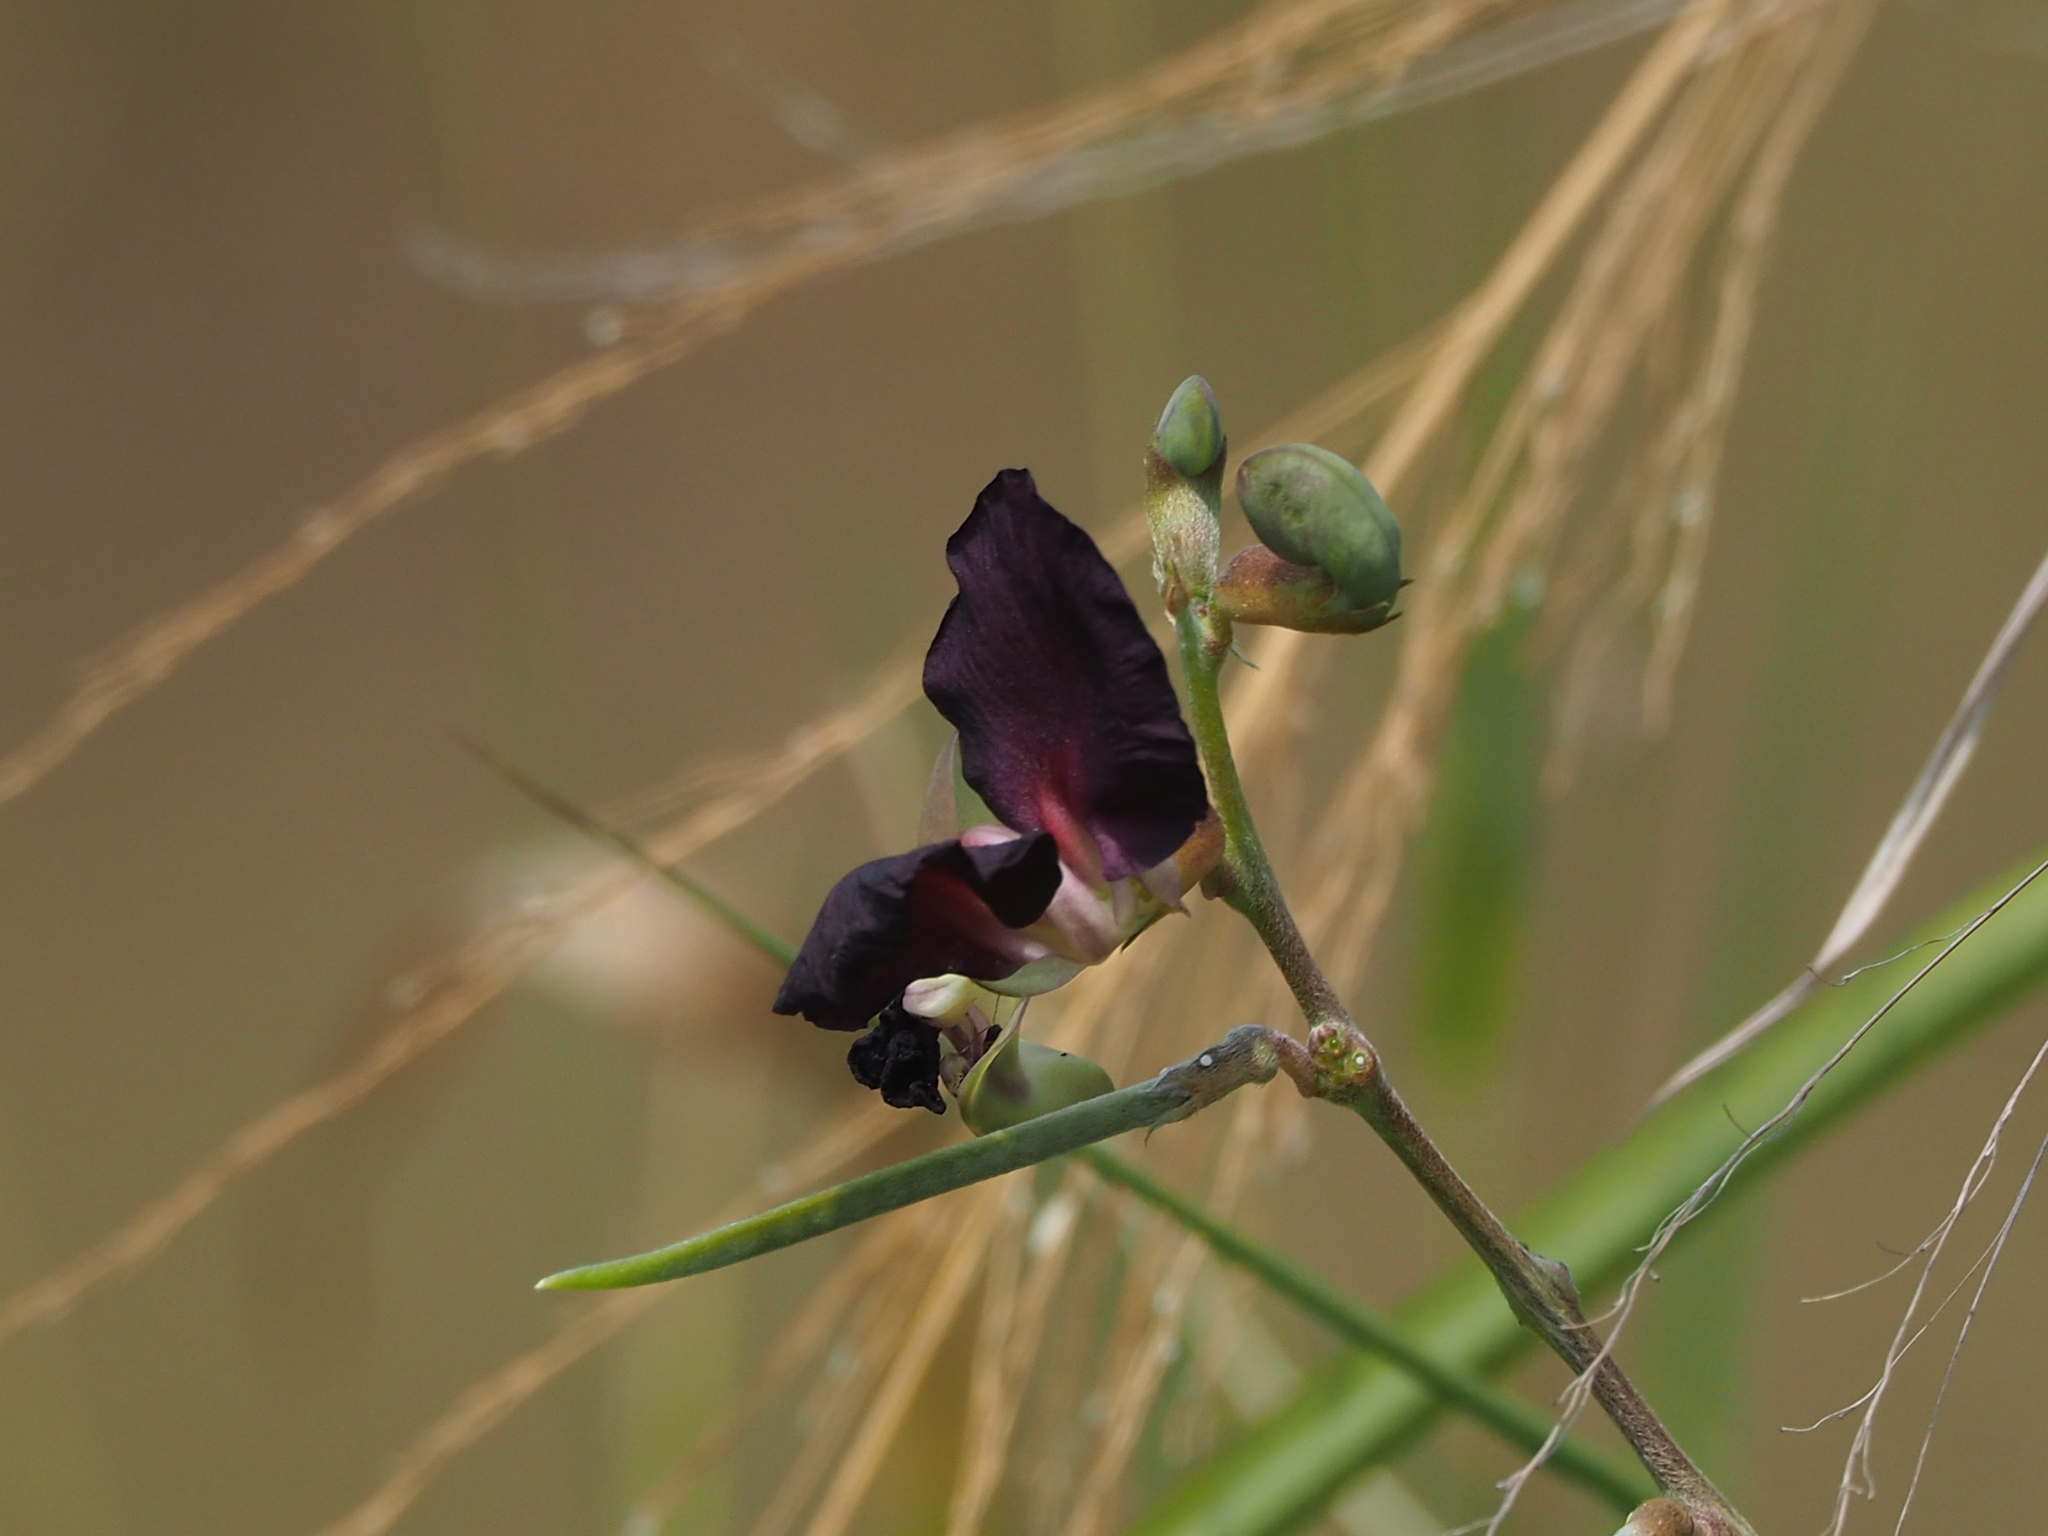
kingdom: Plantae
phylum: Tracheophyta
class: Magnoliopsida
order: Fabales
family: Fabaceae
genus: Macroptilium
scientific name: Macroptilium atropurpureum
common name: Purple bushbean
